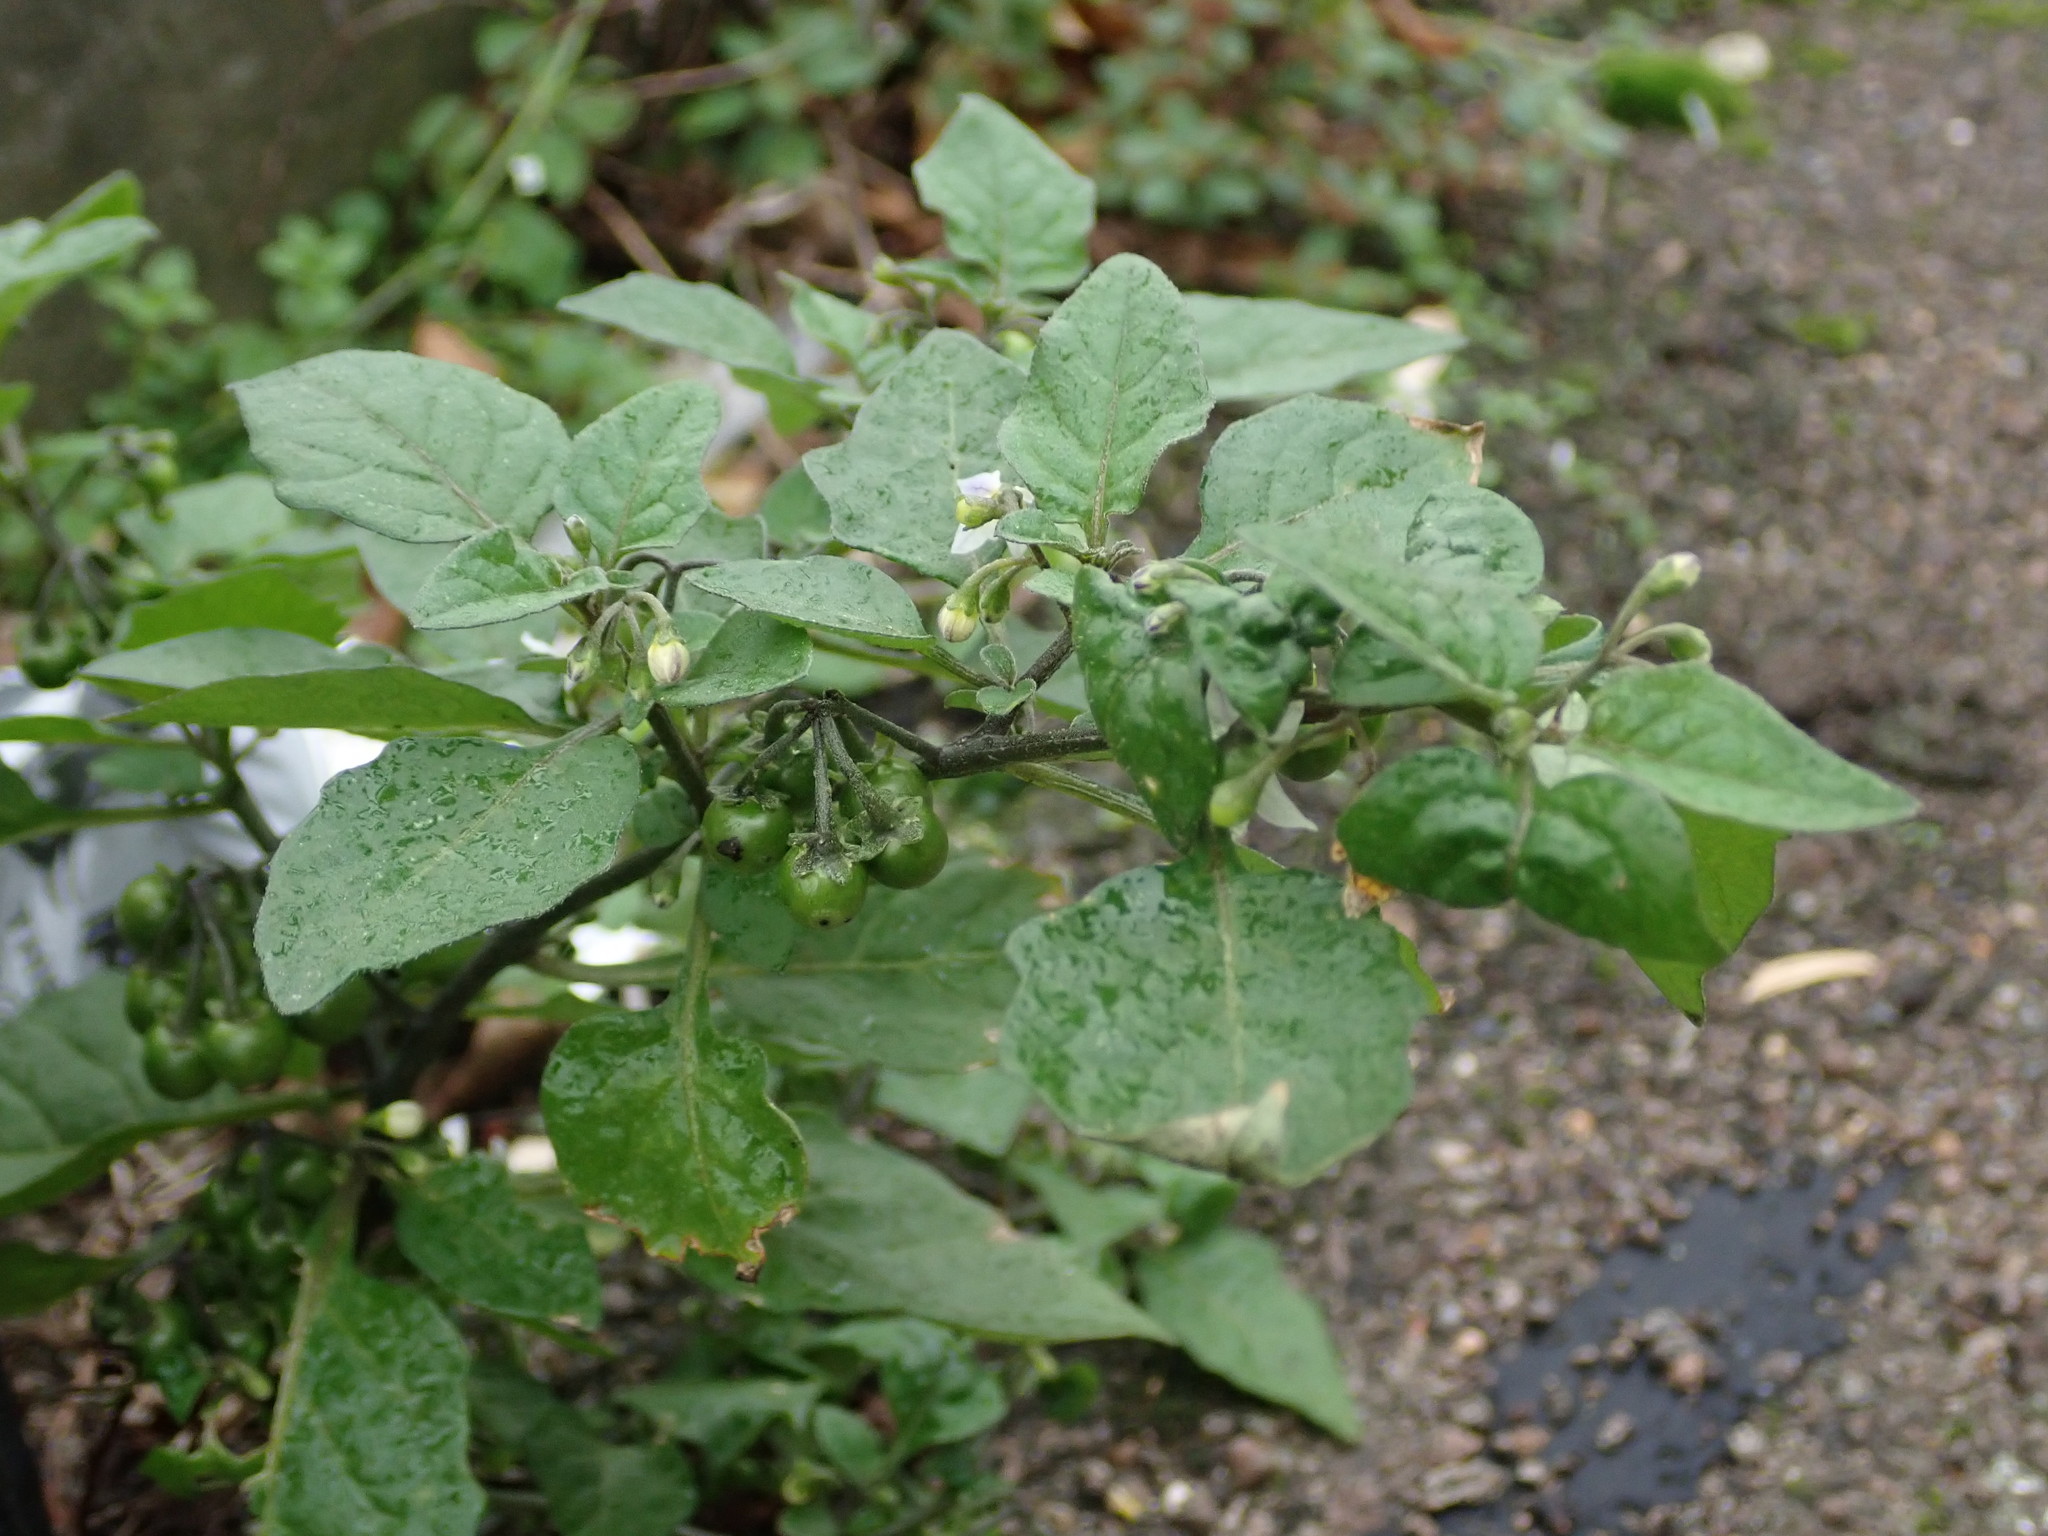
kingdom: Plantae
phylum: Tracheophyta
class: Magnoliopsida
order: Solanales
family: Solanaceae
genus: Solanum
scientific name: Solanum nigrum
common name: Black nightshade
